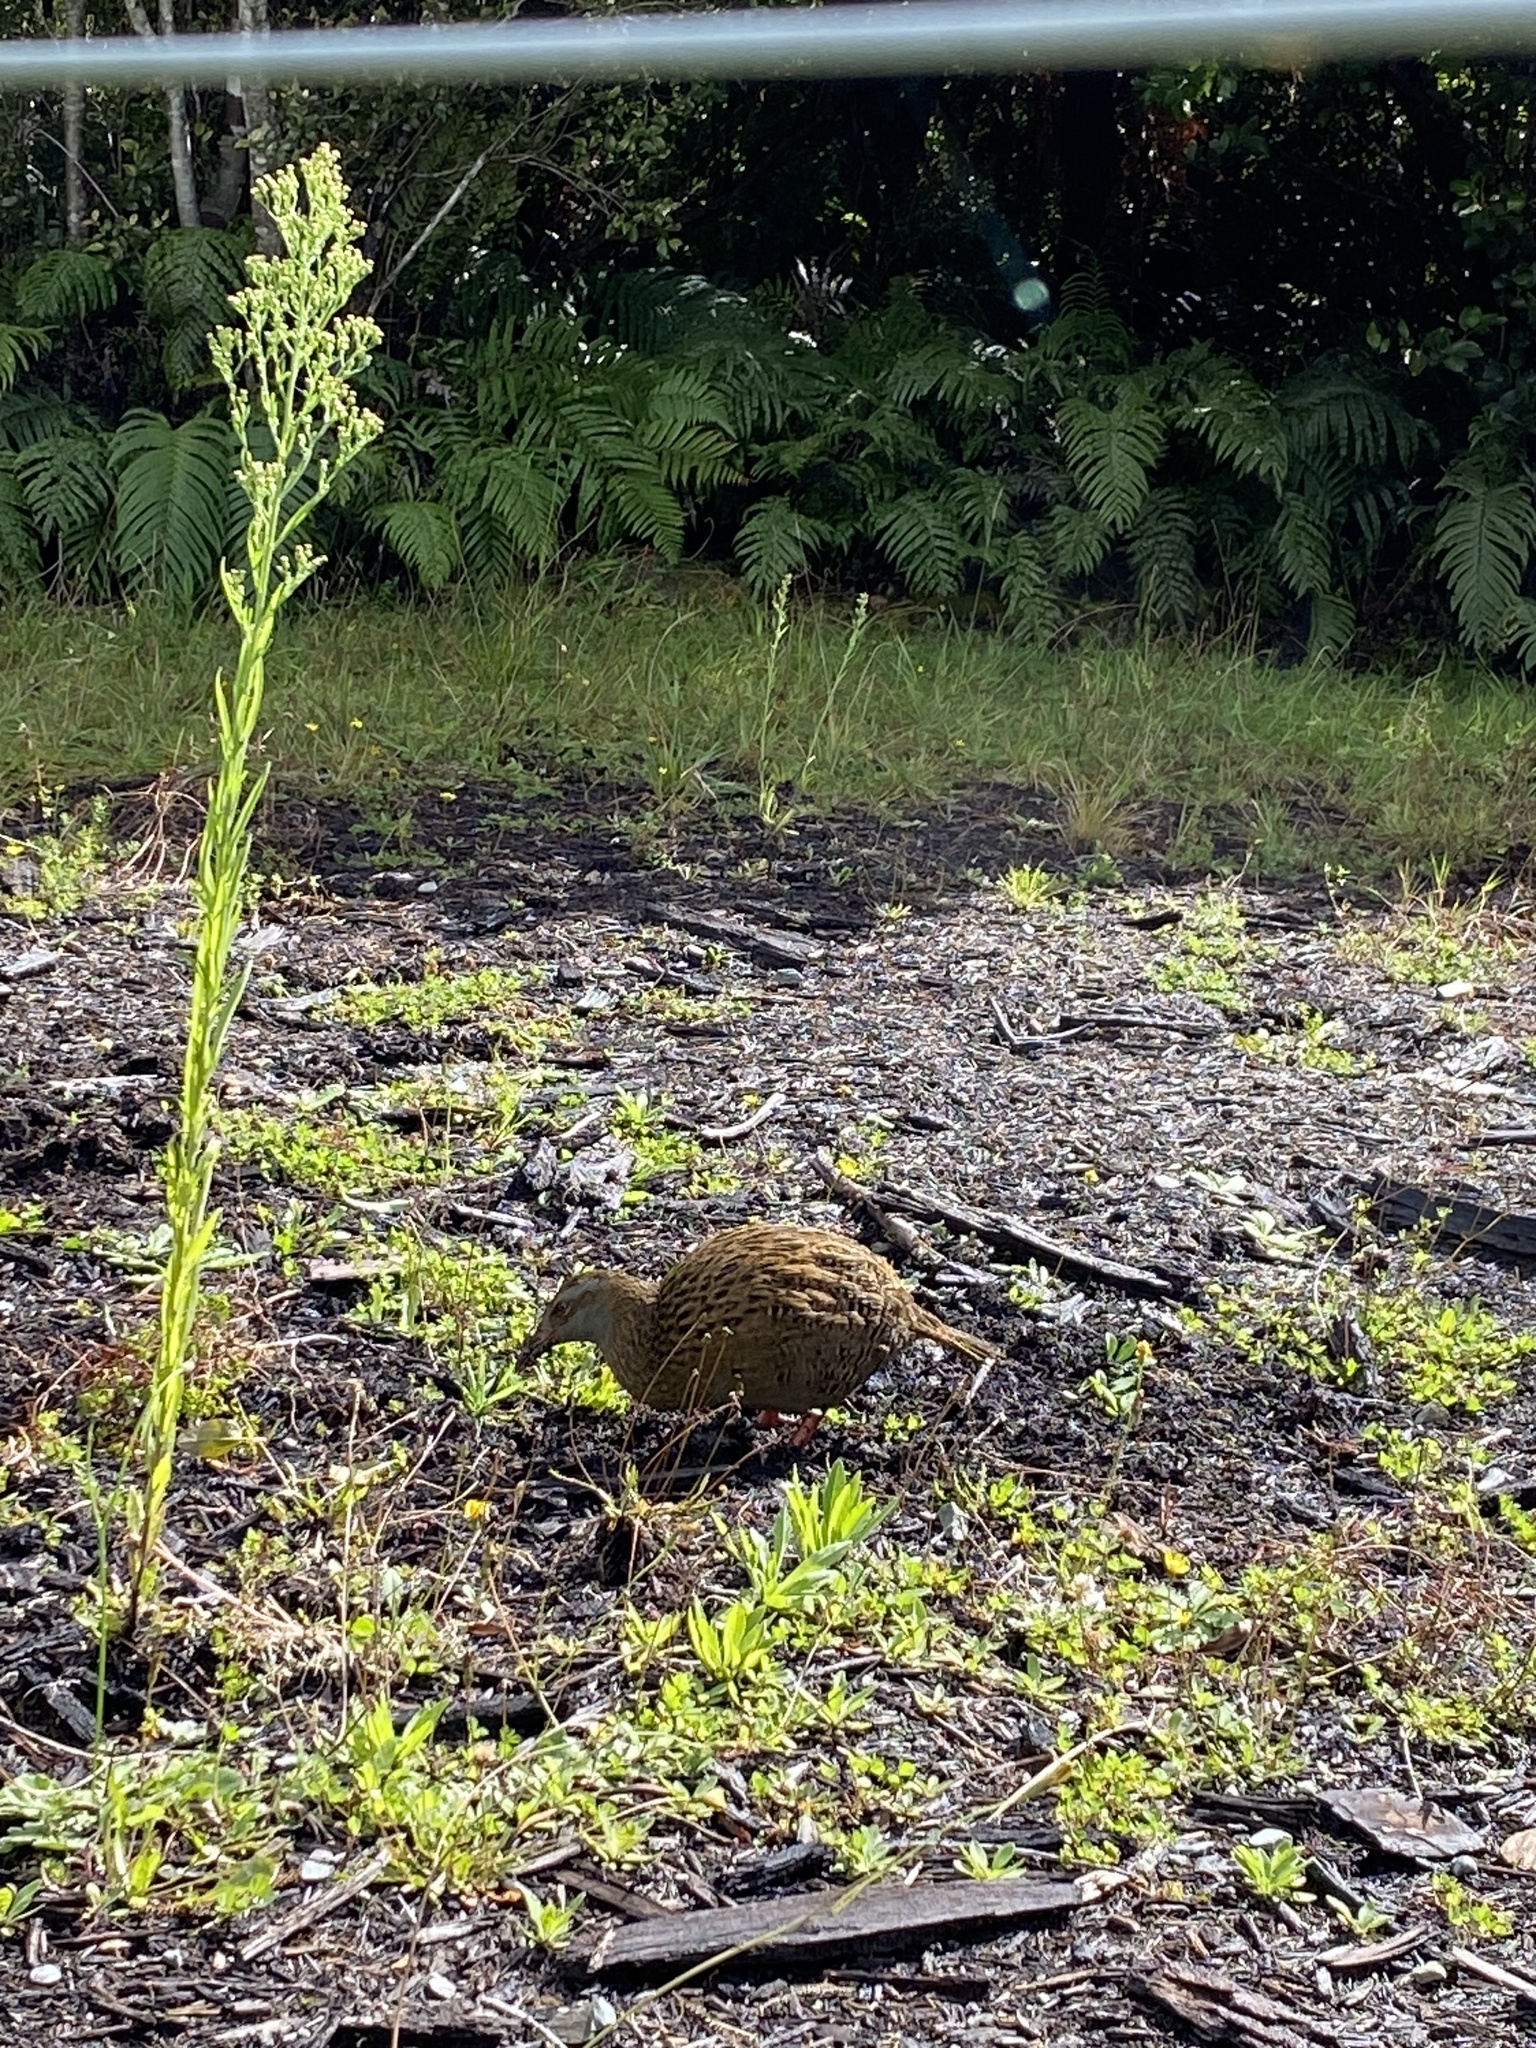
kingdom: Animalia
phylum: Chordata
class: Aves
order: Gruiformes
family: Rallidae
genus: Gallirallus
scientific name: Gallirallus australis
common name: Weka
